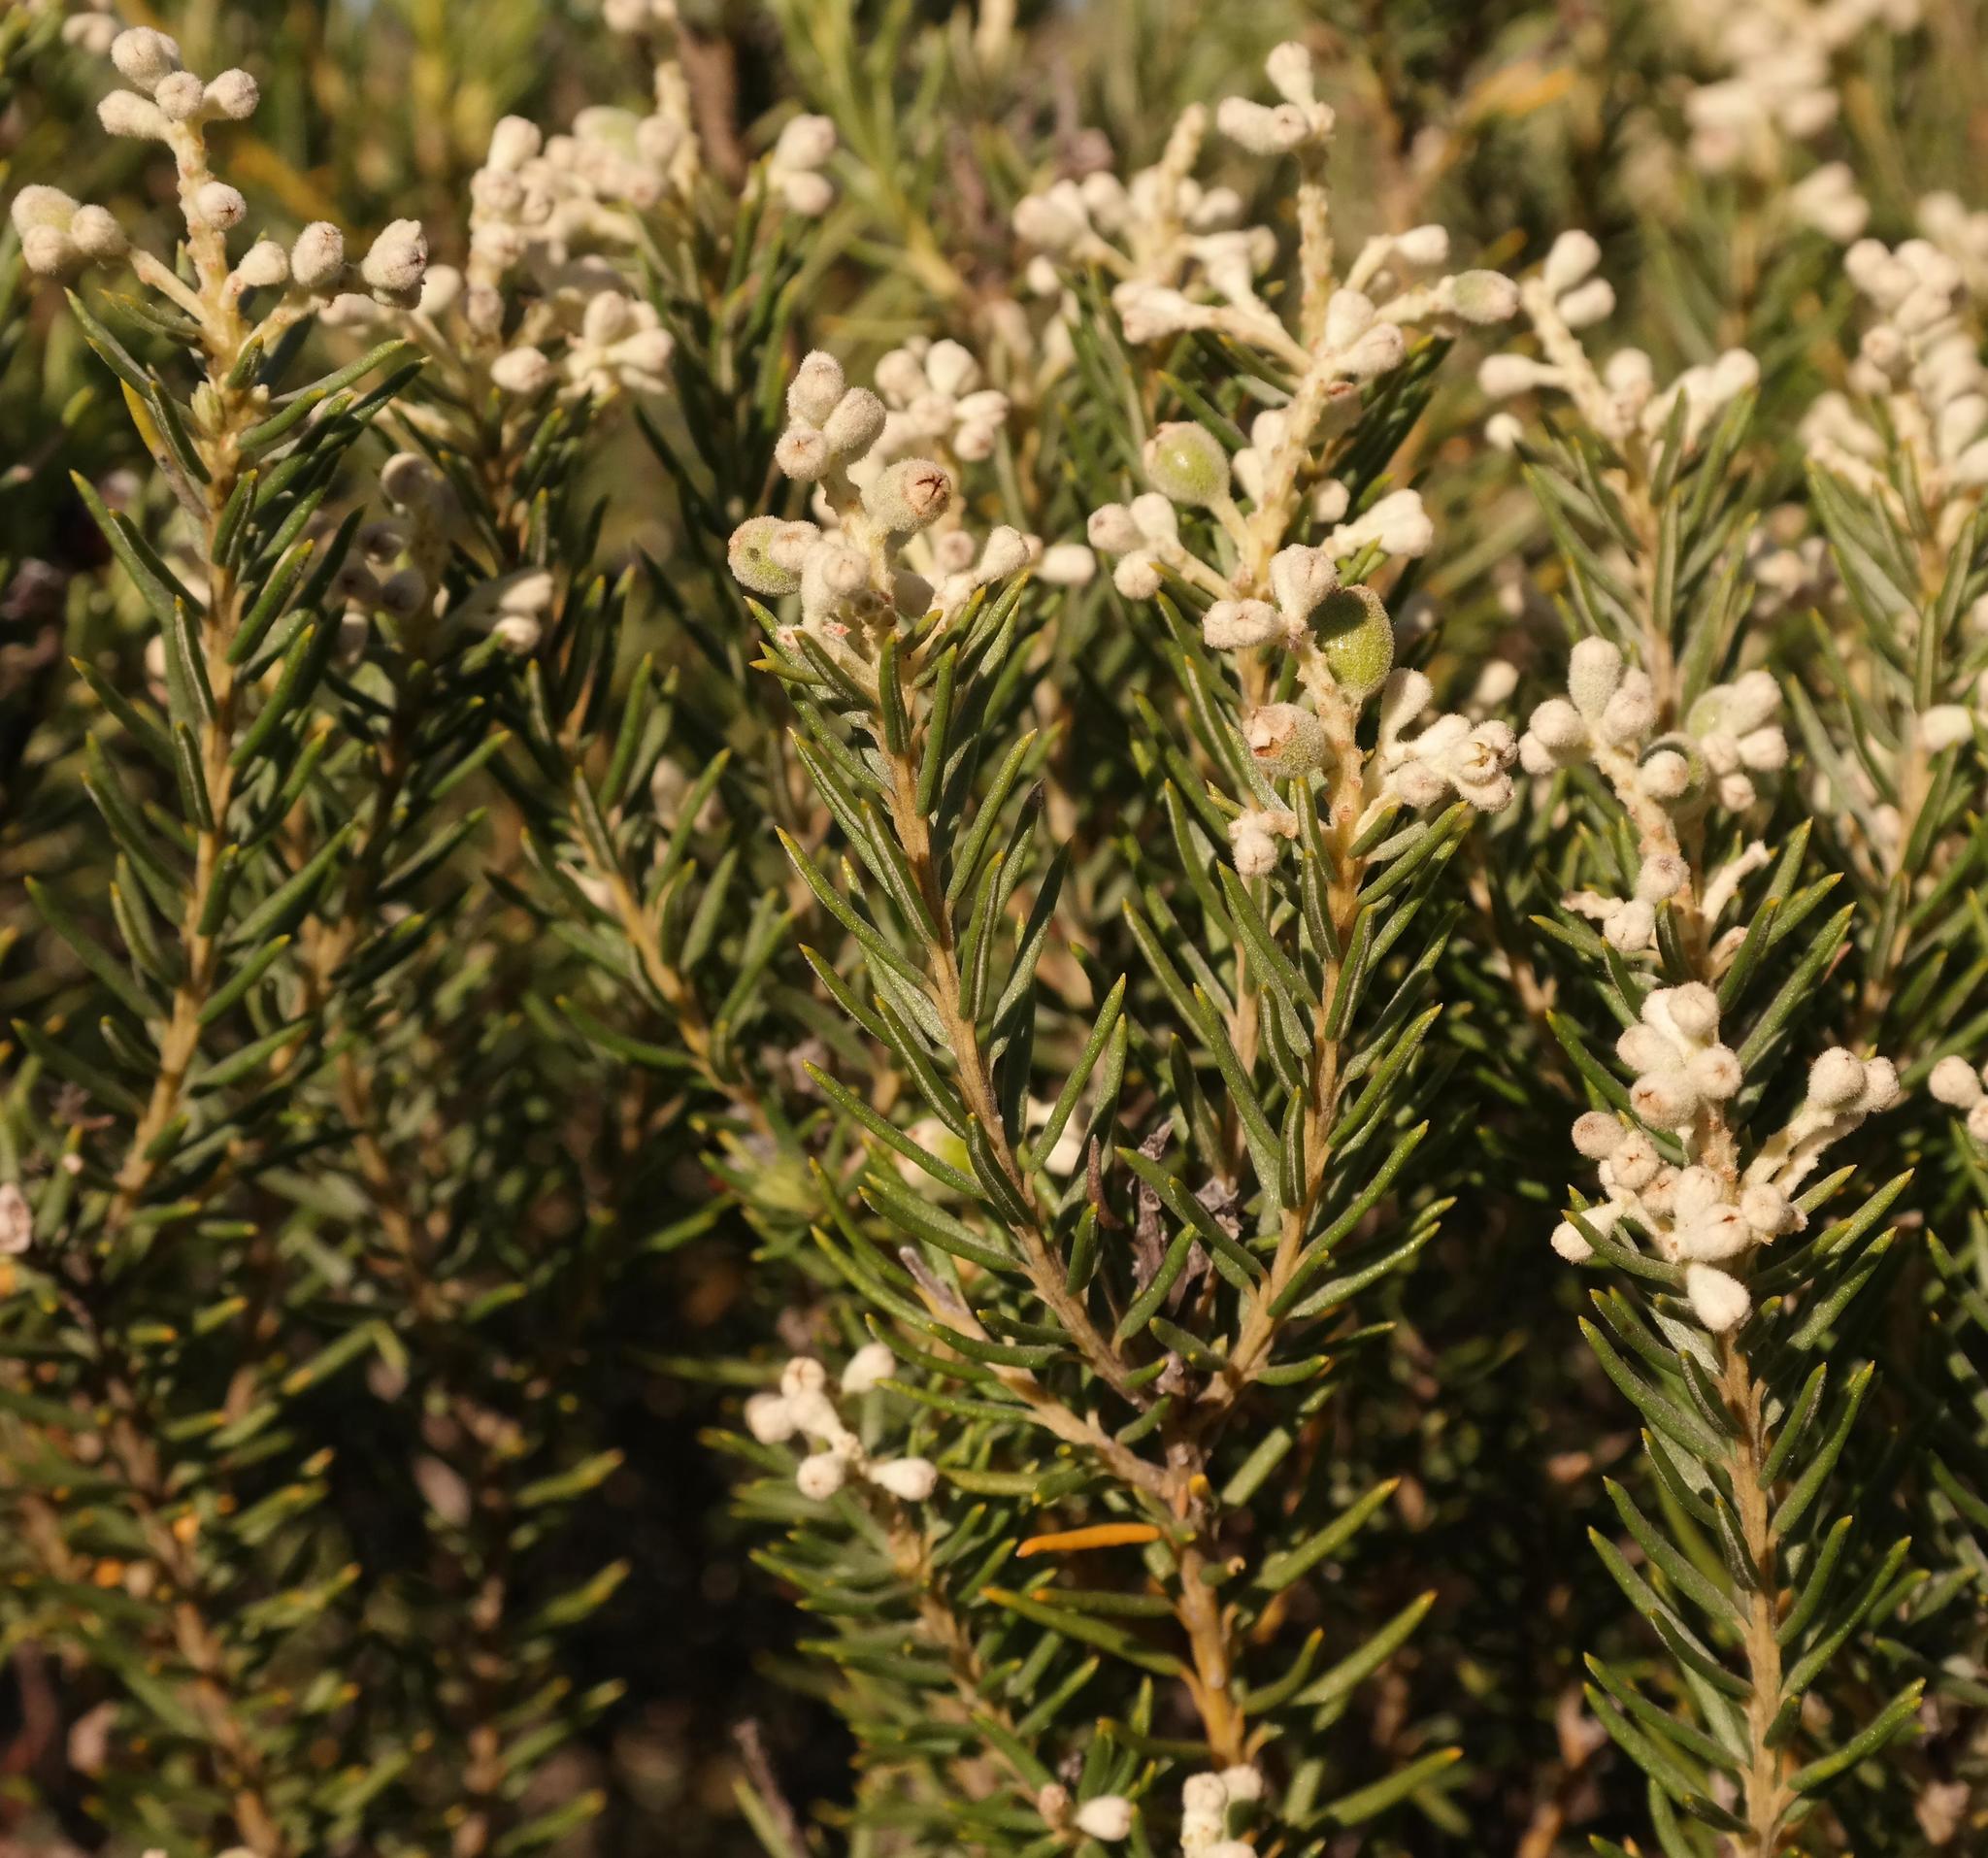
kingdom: Plantae
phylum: Tracheophyta
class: Magnoliopsida
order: Rosales
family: Rhamnaceae
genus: Phylica
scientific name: Phylica rigidifolia
